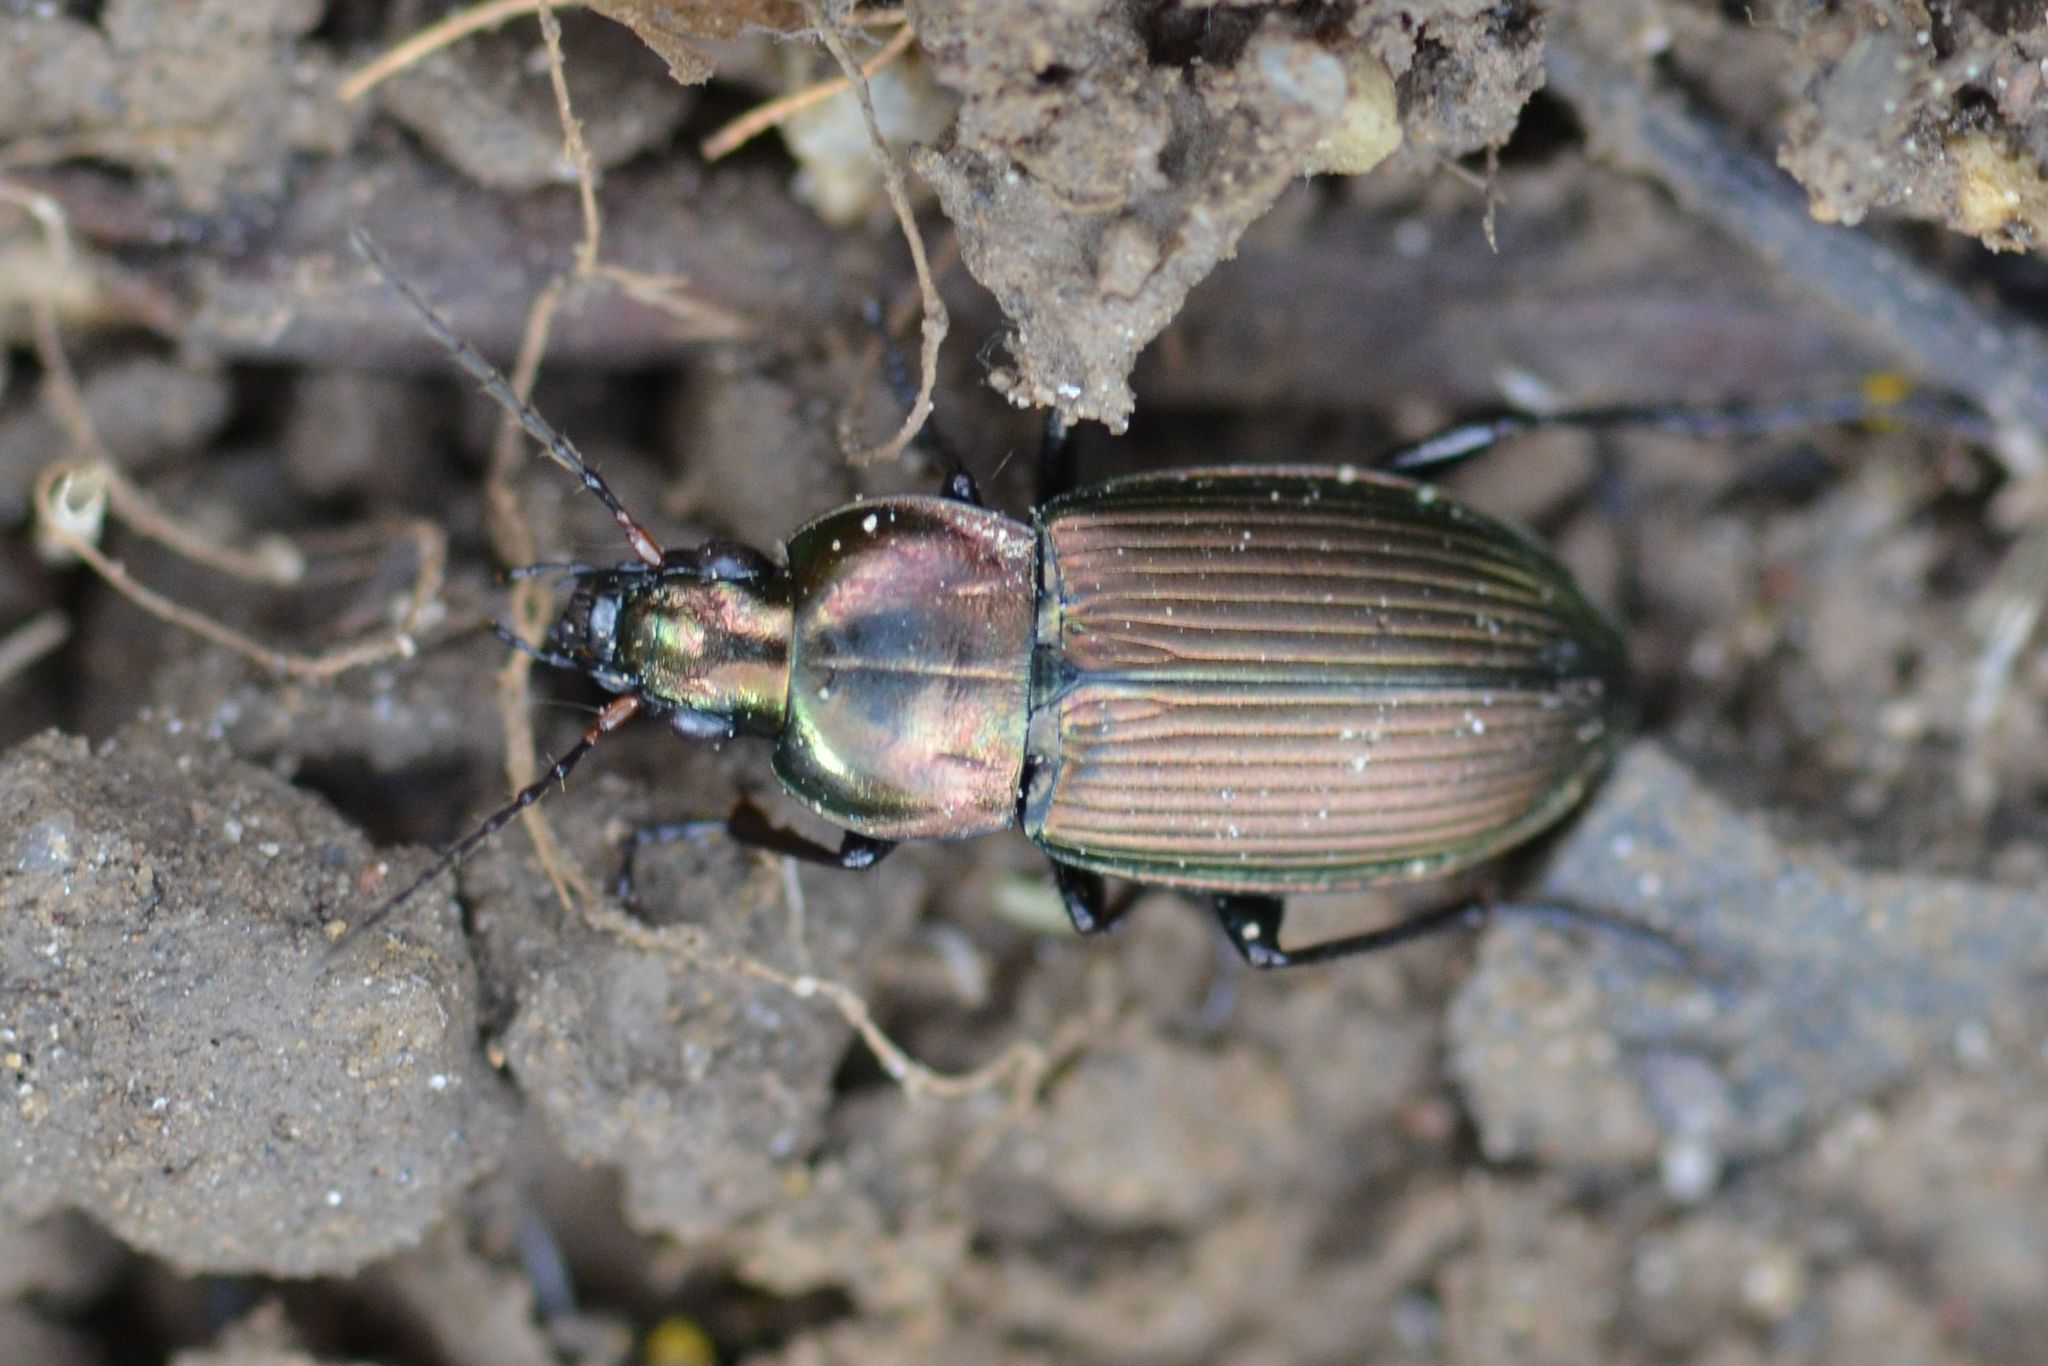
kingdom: Animalia
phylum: Arthropoda
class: Insecta
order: Coleoptera
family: Carabidae
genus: Poecilus
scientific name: Poecilus cupreus
